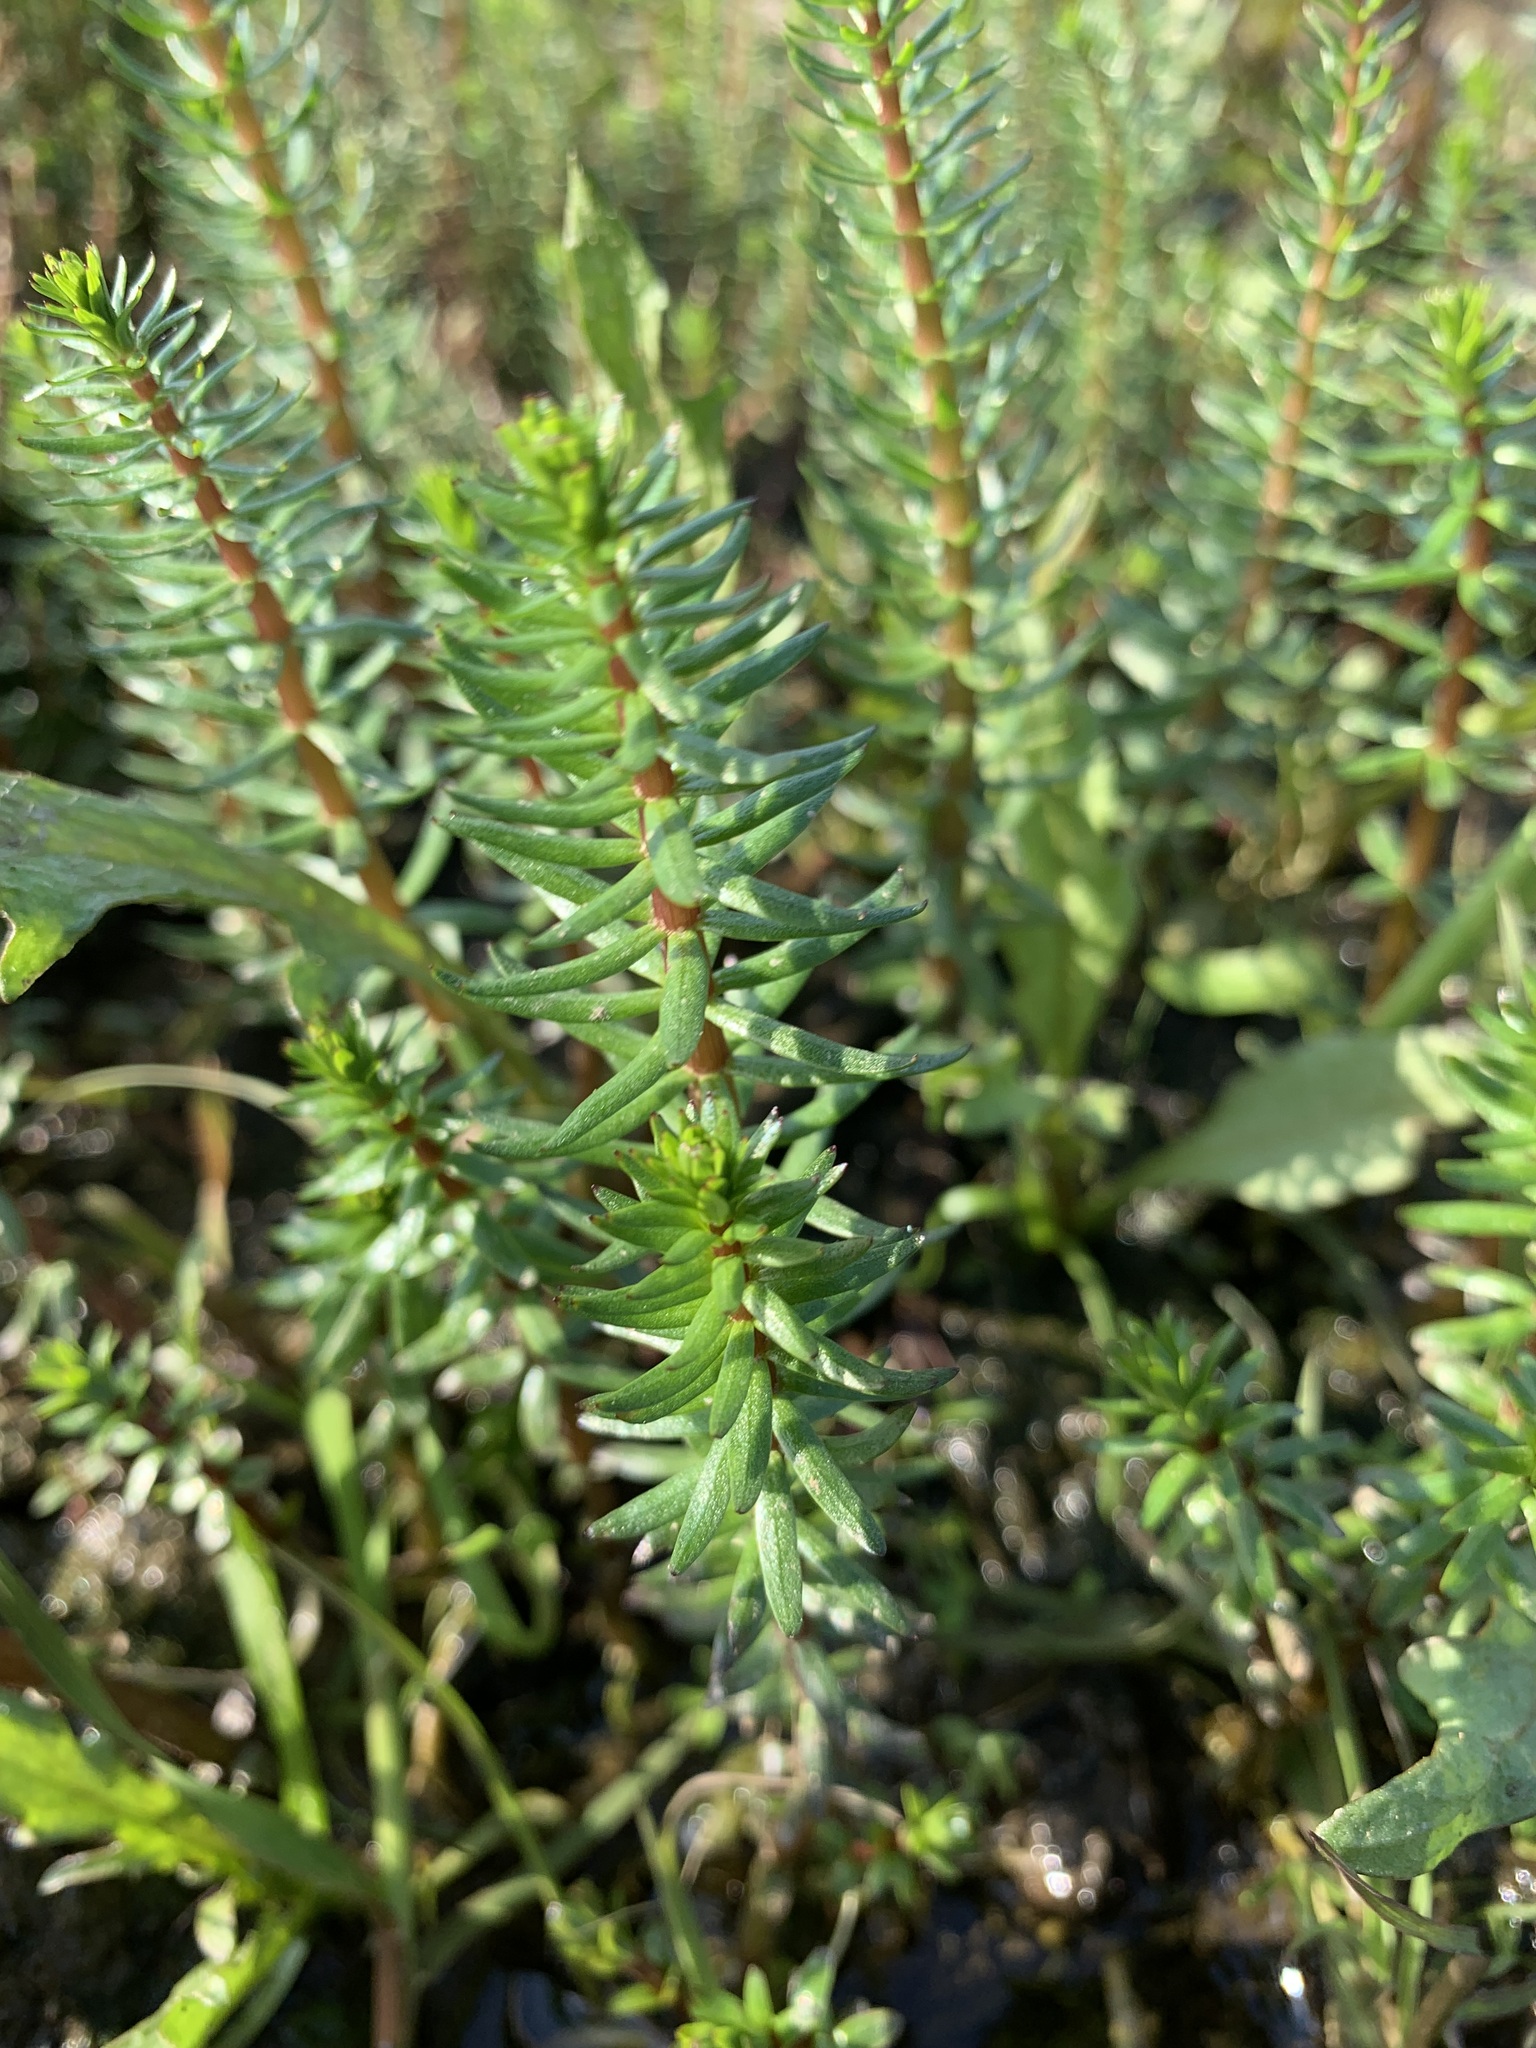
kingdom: Plantae
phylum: Tracheophyta
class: Magnoliopsida
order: Lamiales
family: Plantaginaceae
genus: Hippuris
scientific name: Hippuris lanceolata
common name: Lance-leaved mare's-tail
